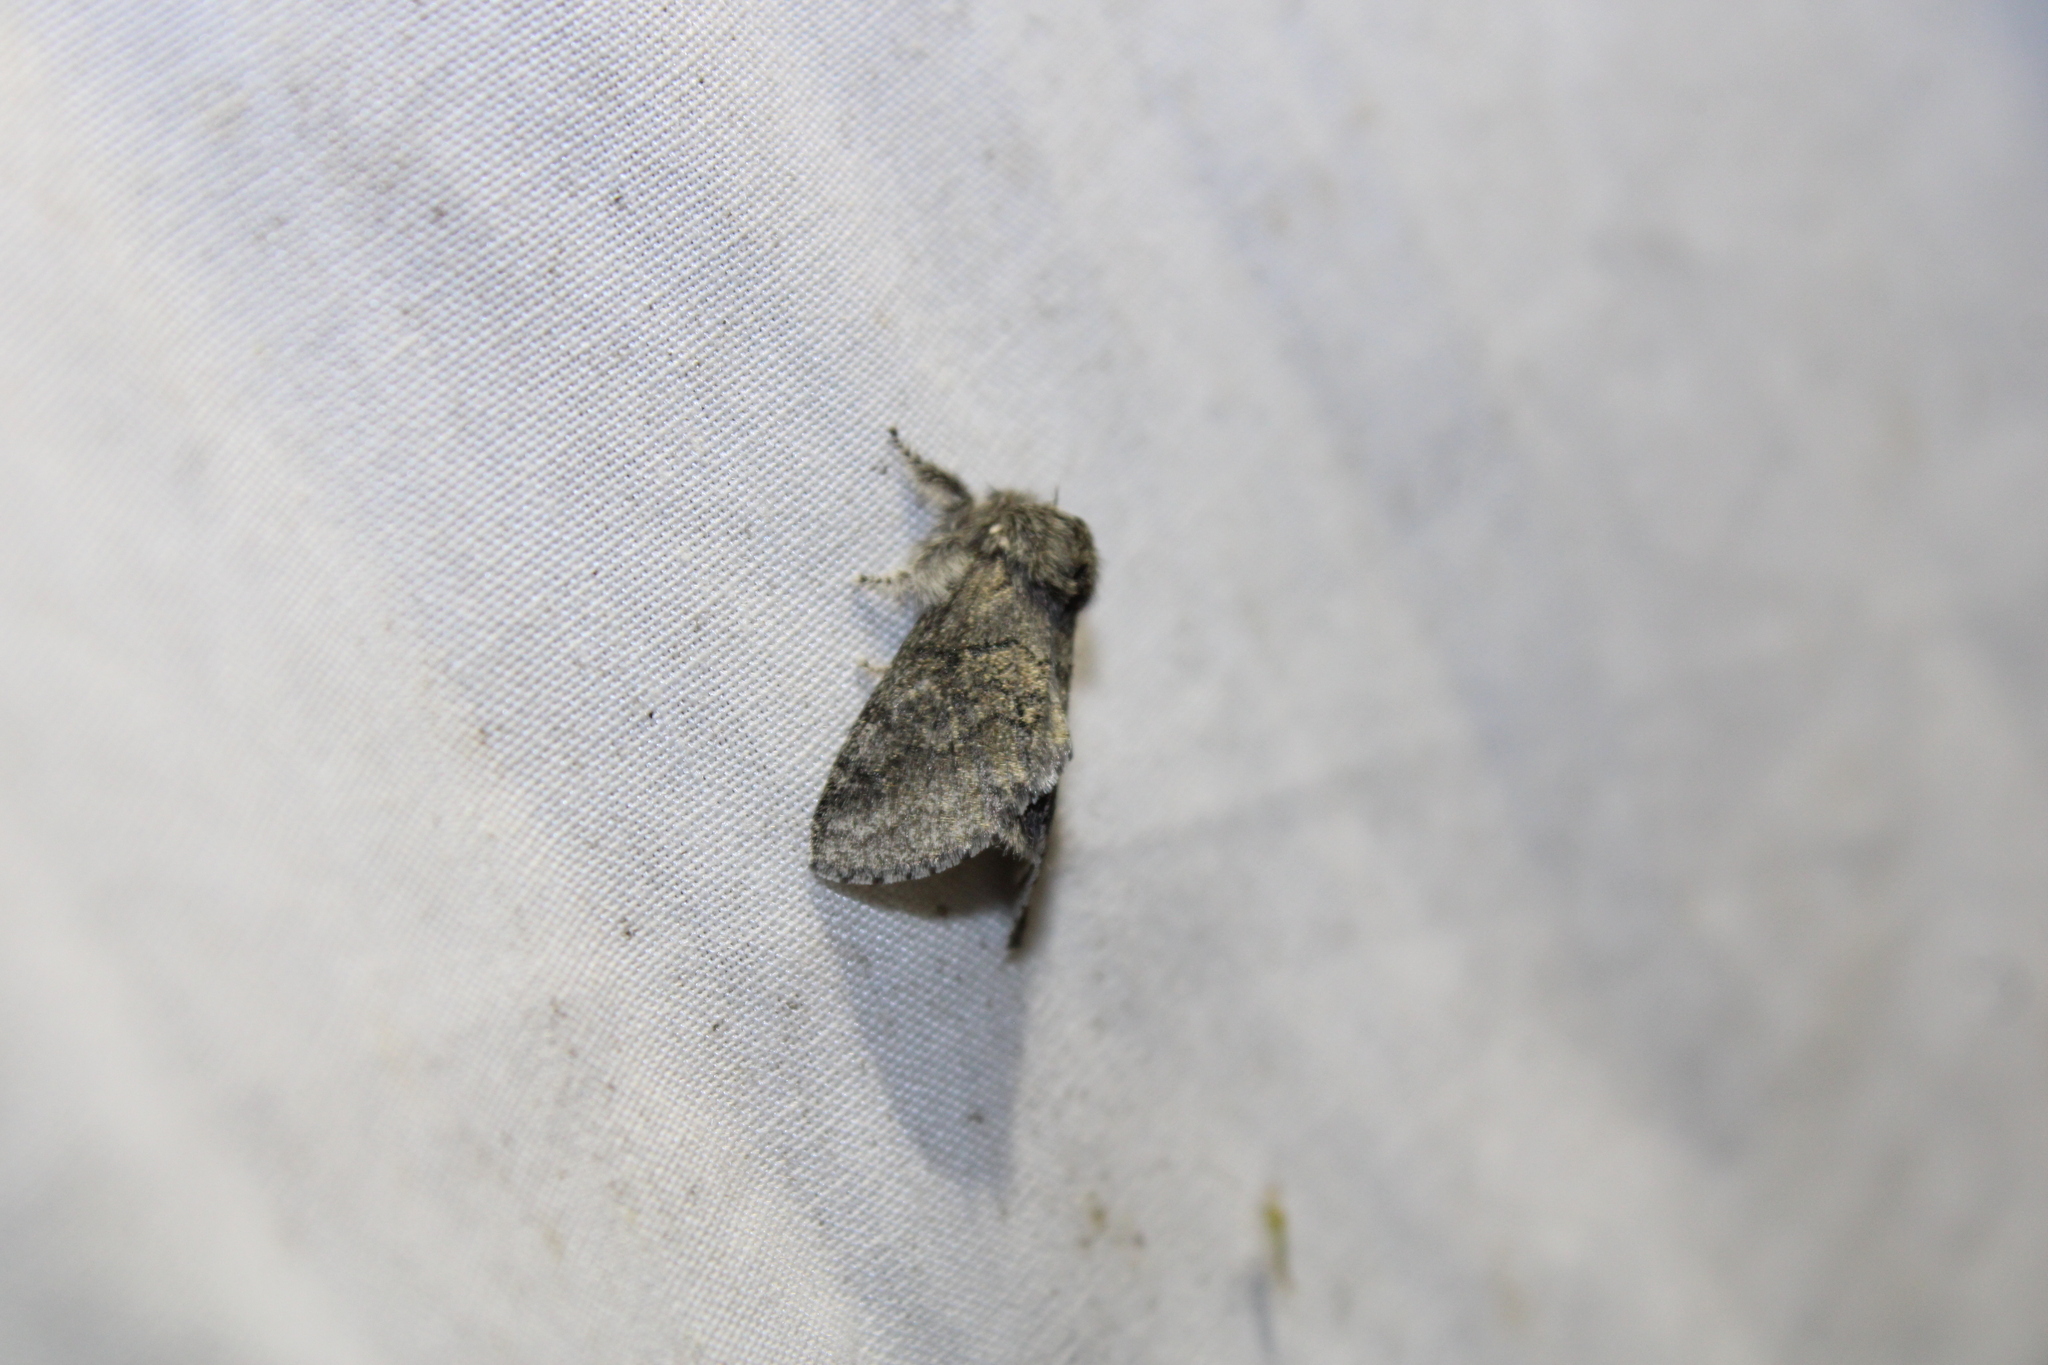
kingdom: Animalia
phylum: Arthropoda
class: Insecta
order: Lepidoptera
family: Notodontidae
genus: Gluphisia
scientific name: Gluphisia septentrionis
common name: Common gluphisia
